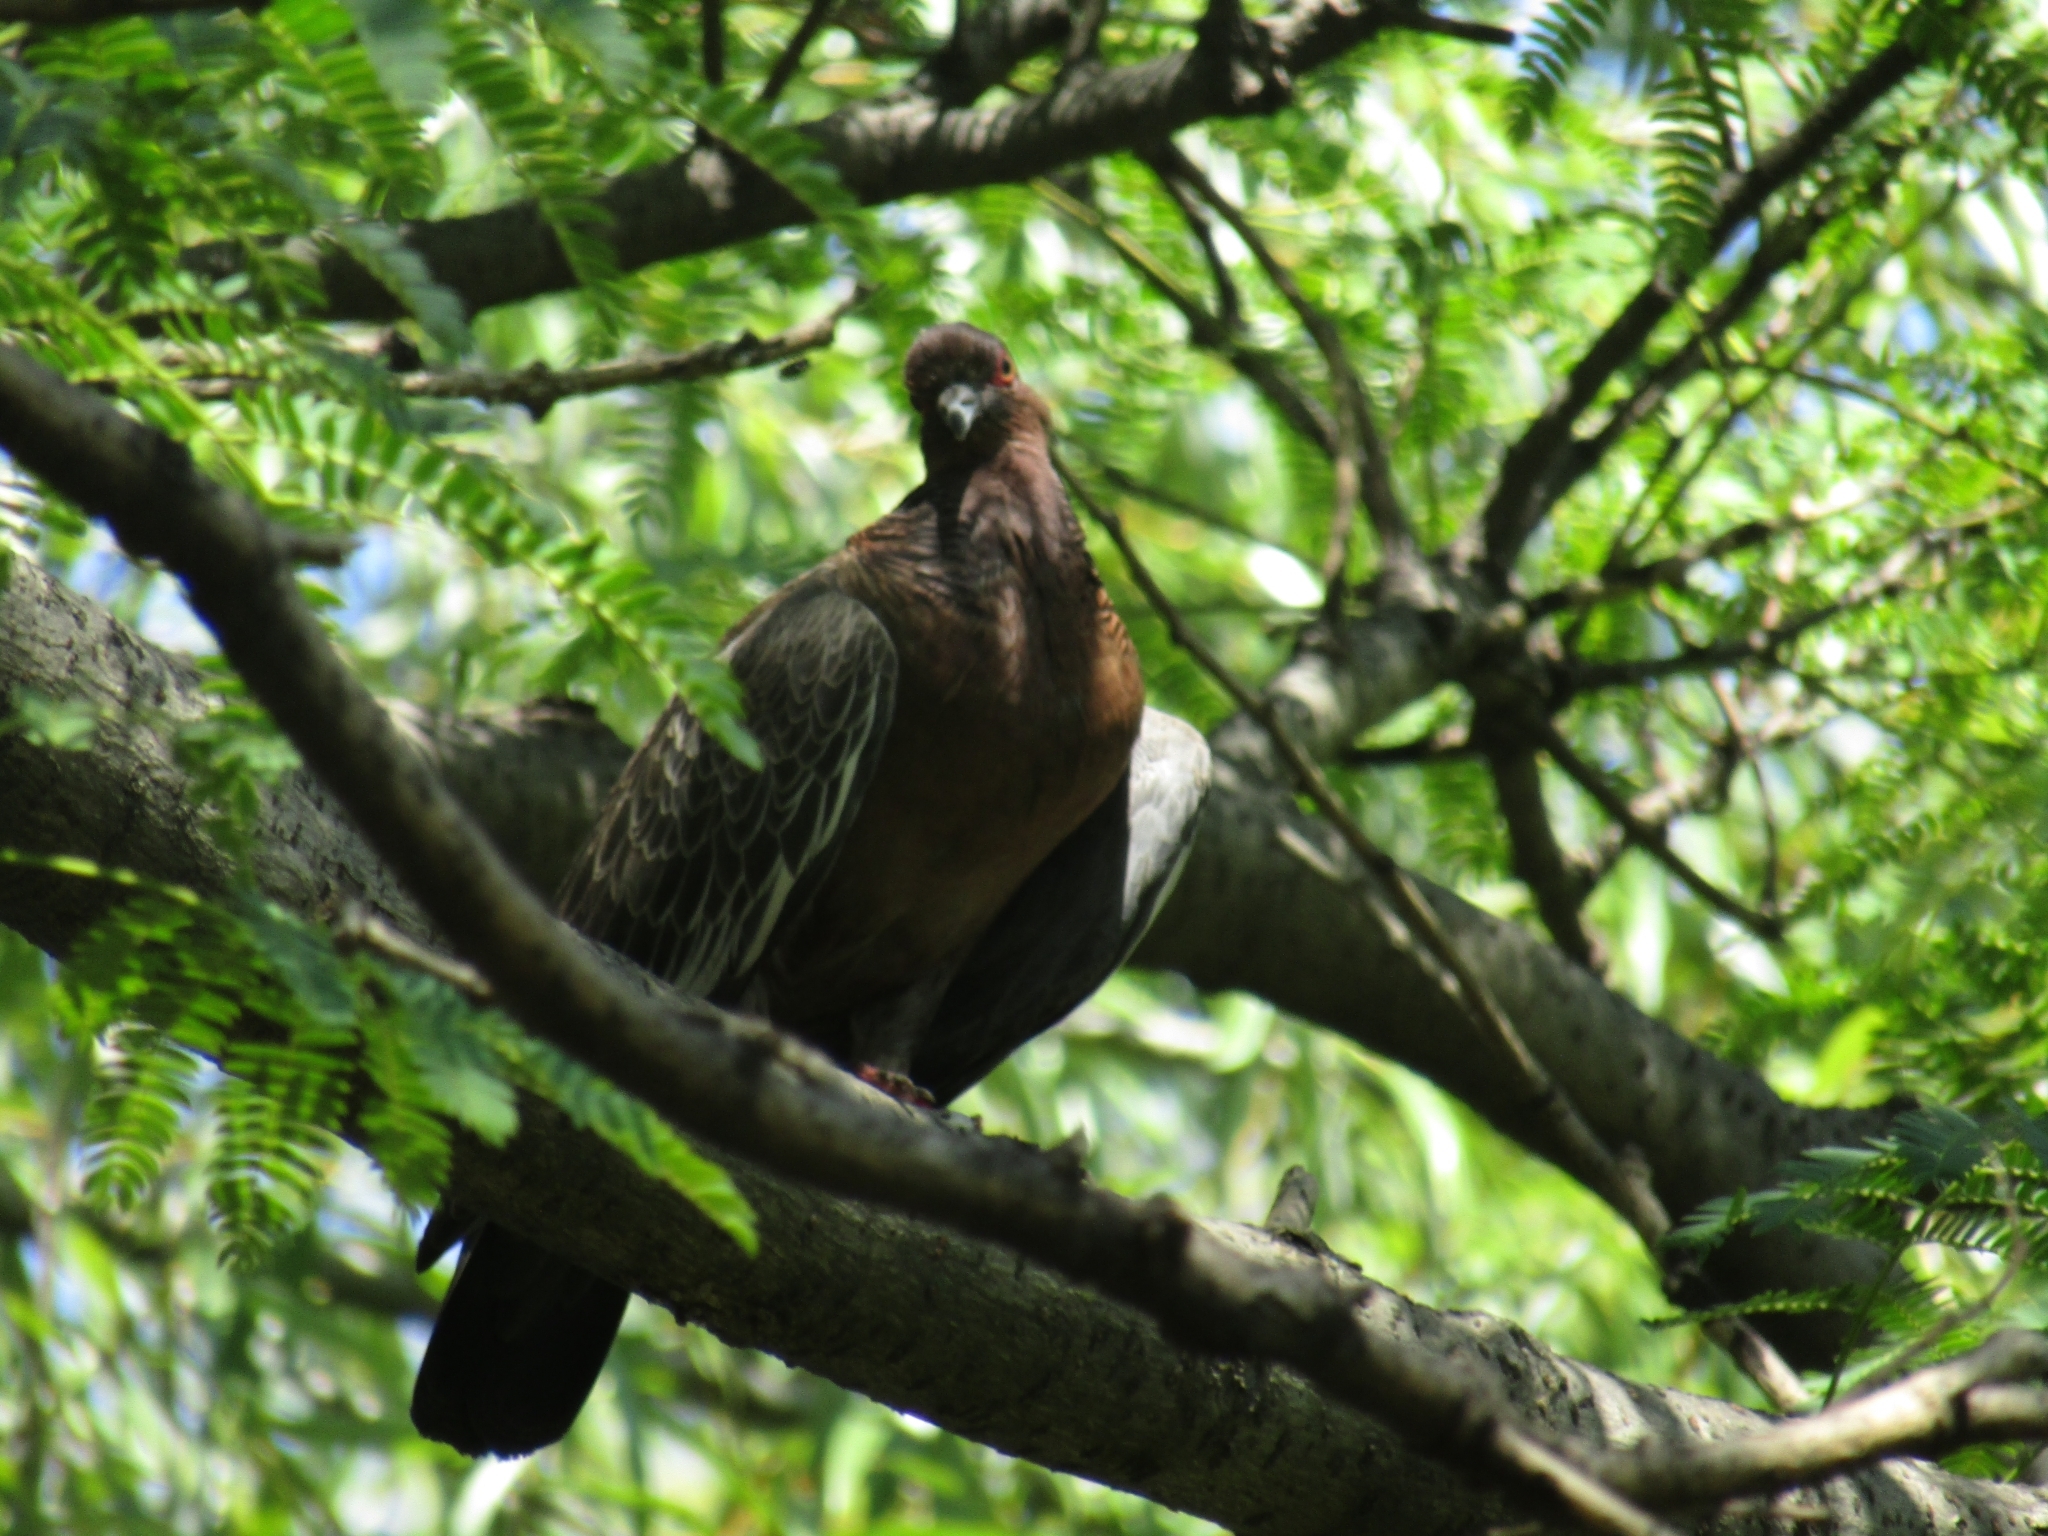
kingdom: Animalia
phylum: Chordata
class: Aves
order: Columbiformes
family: Columbidae
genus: Patagioenas
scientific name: Patagioenas picazuro
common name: Picazuro pigeon
